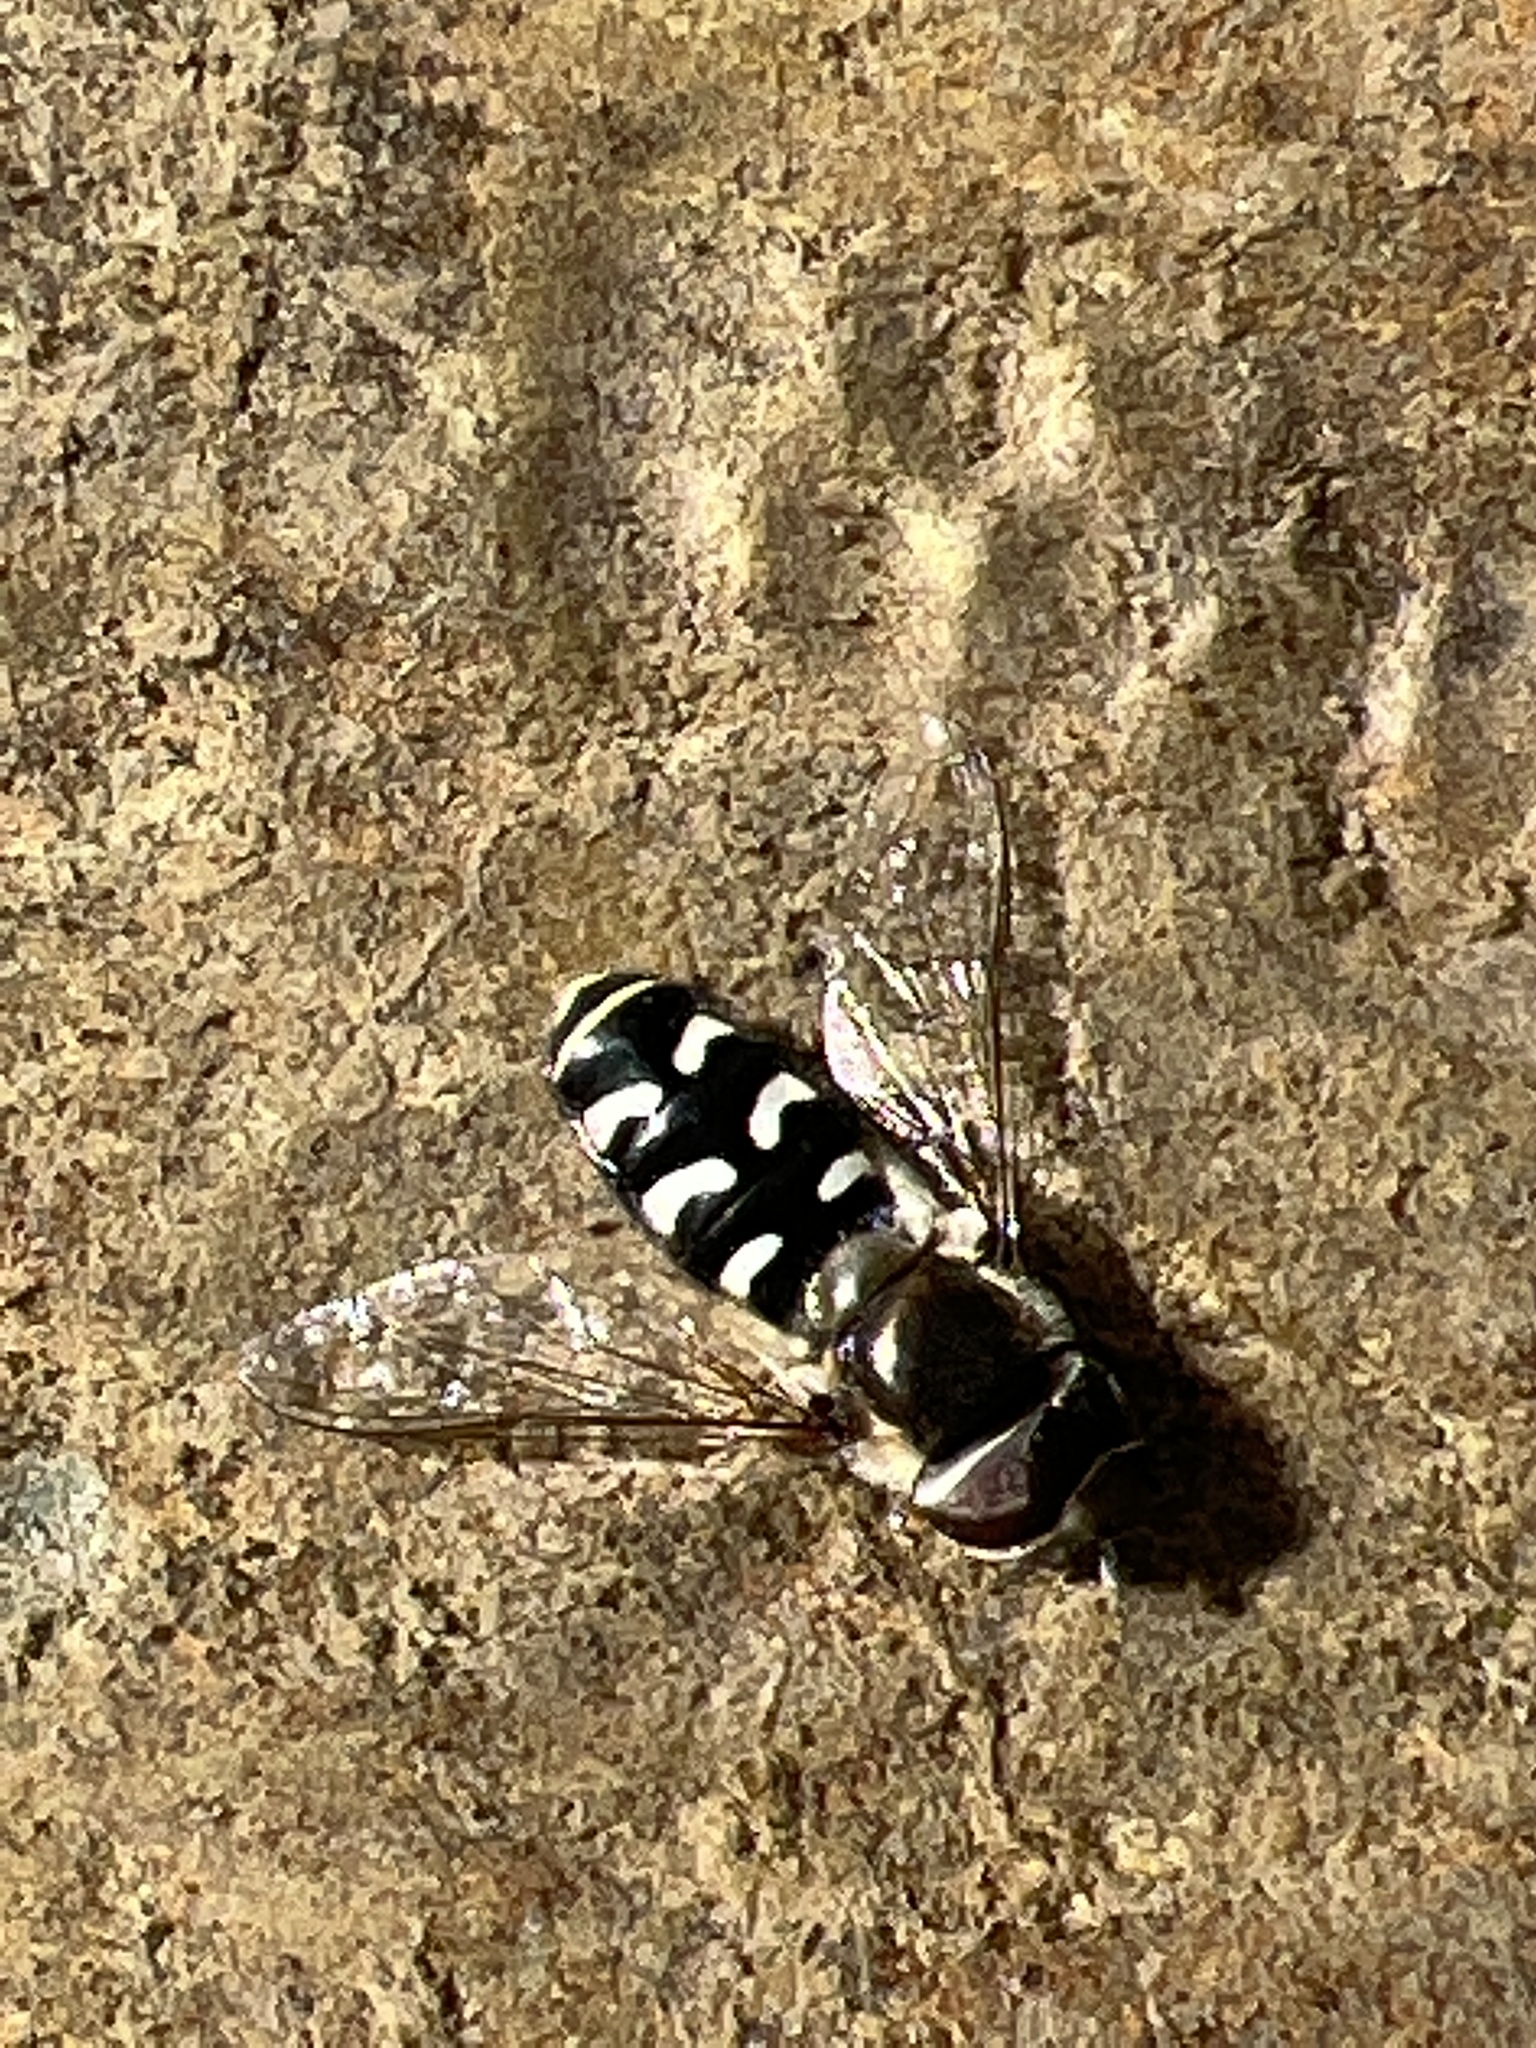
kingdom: Animalia
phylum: Arthropoda
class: Insecta
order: Diptera
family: Syrphidae
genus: Scaeva
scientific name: Scaeva affinis
